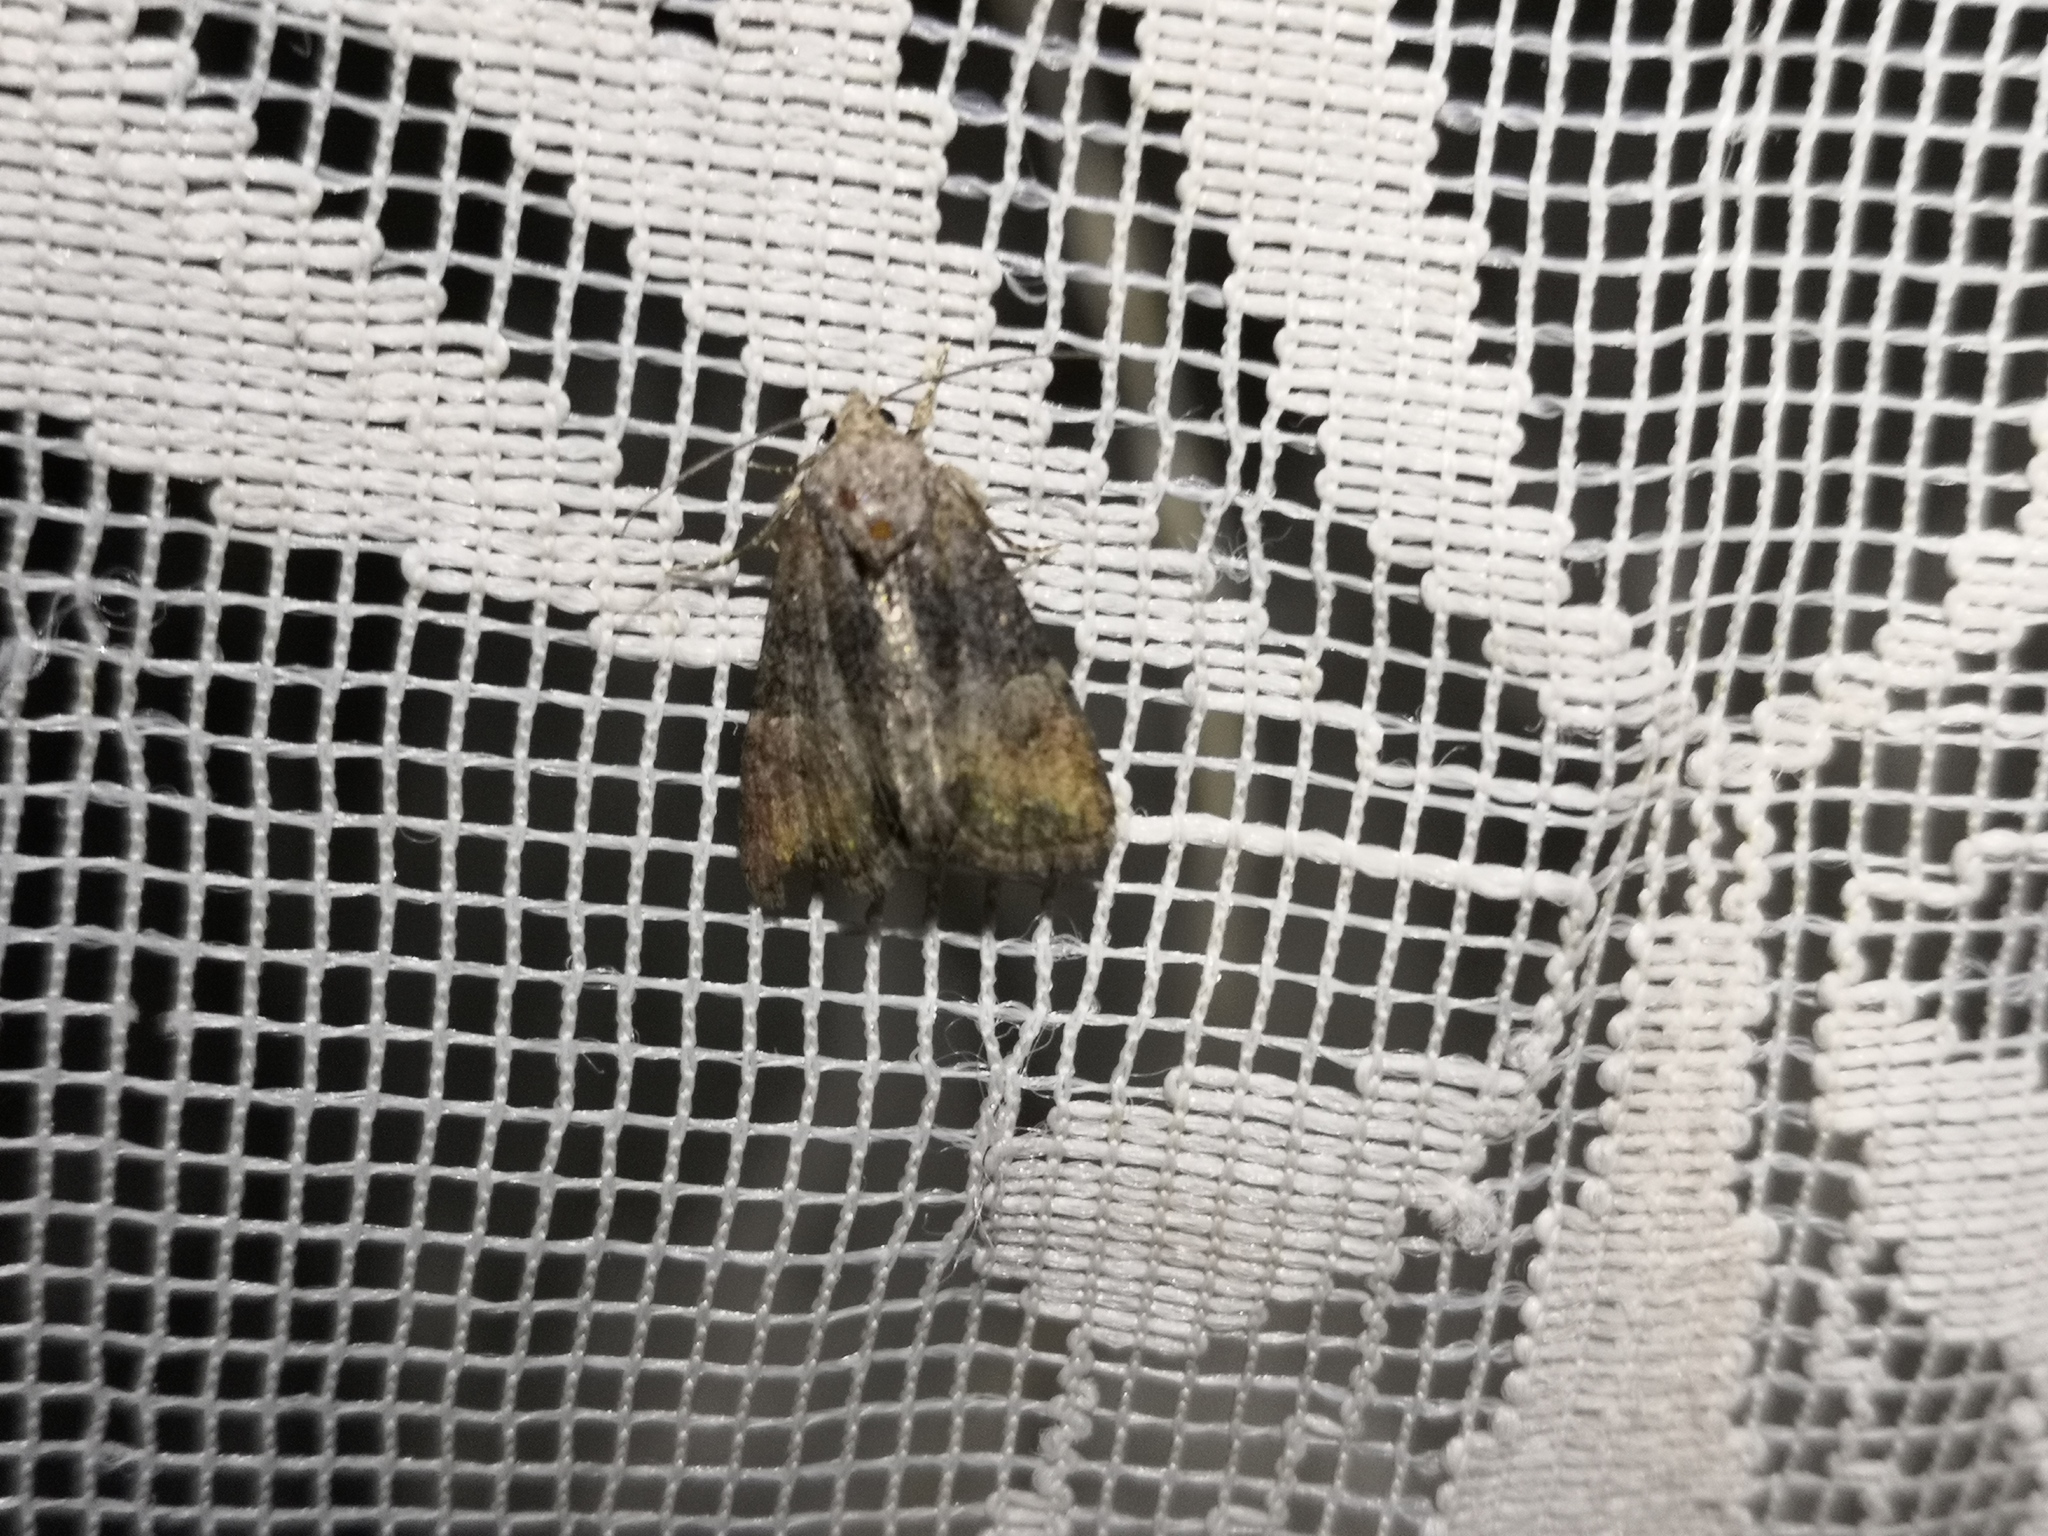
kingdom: Animalia
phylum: Arthropoda
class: Insecta
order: Lepidoptera
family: Noctuidae
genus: Mesoligia
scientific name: Mesoligia furuncula
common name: Cloaked minor
